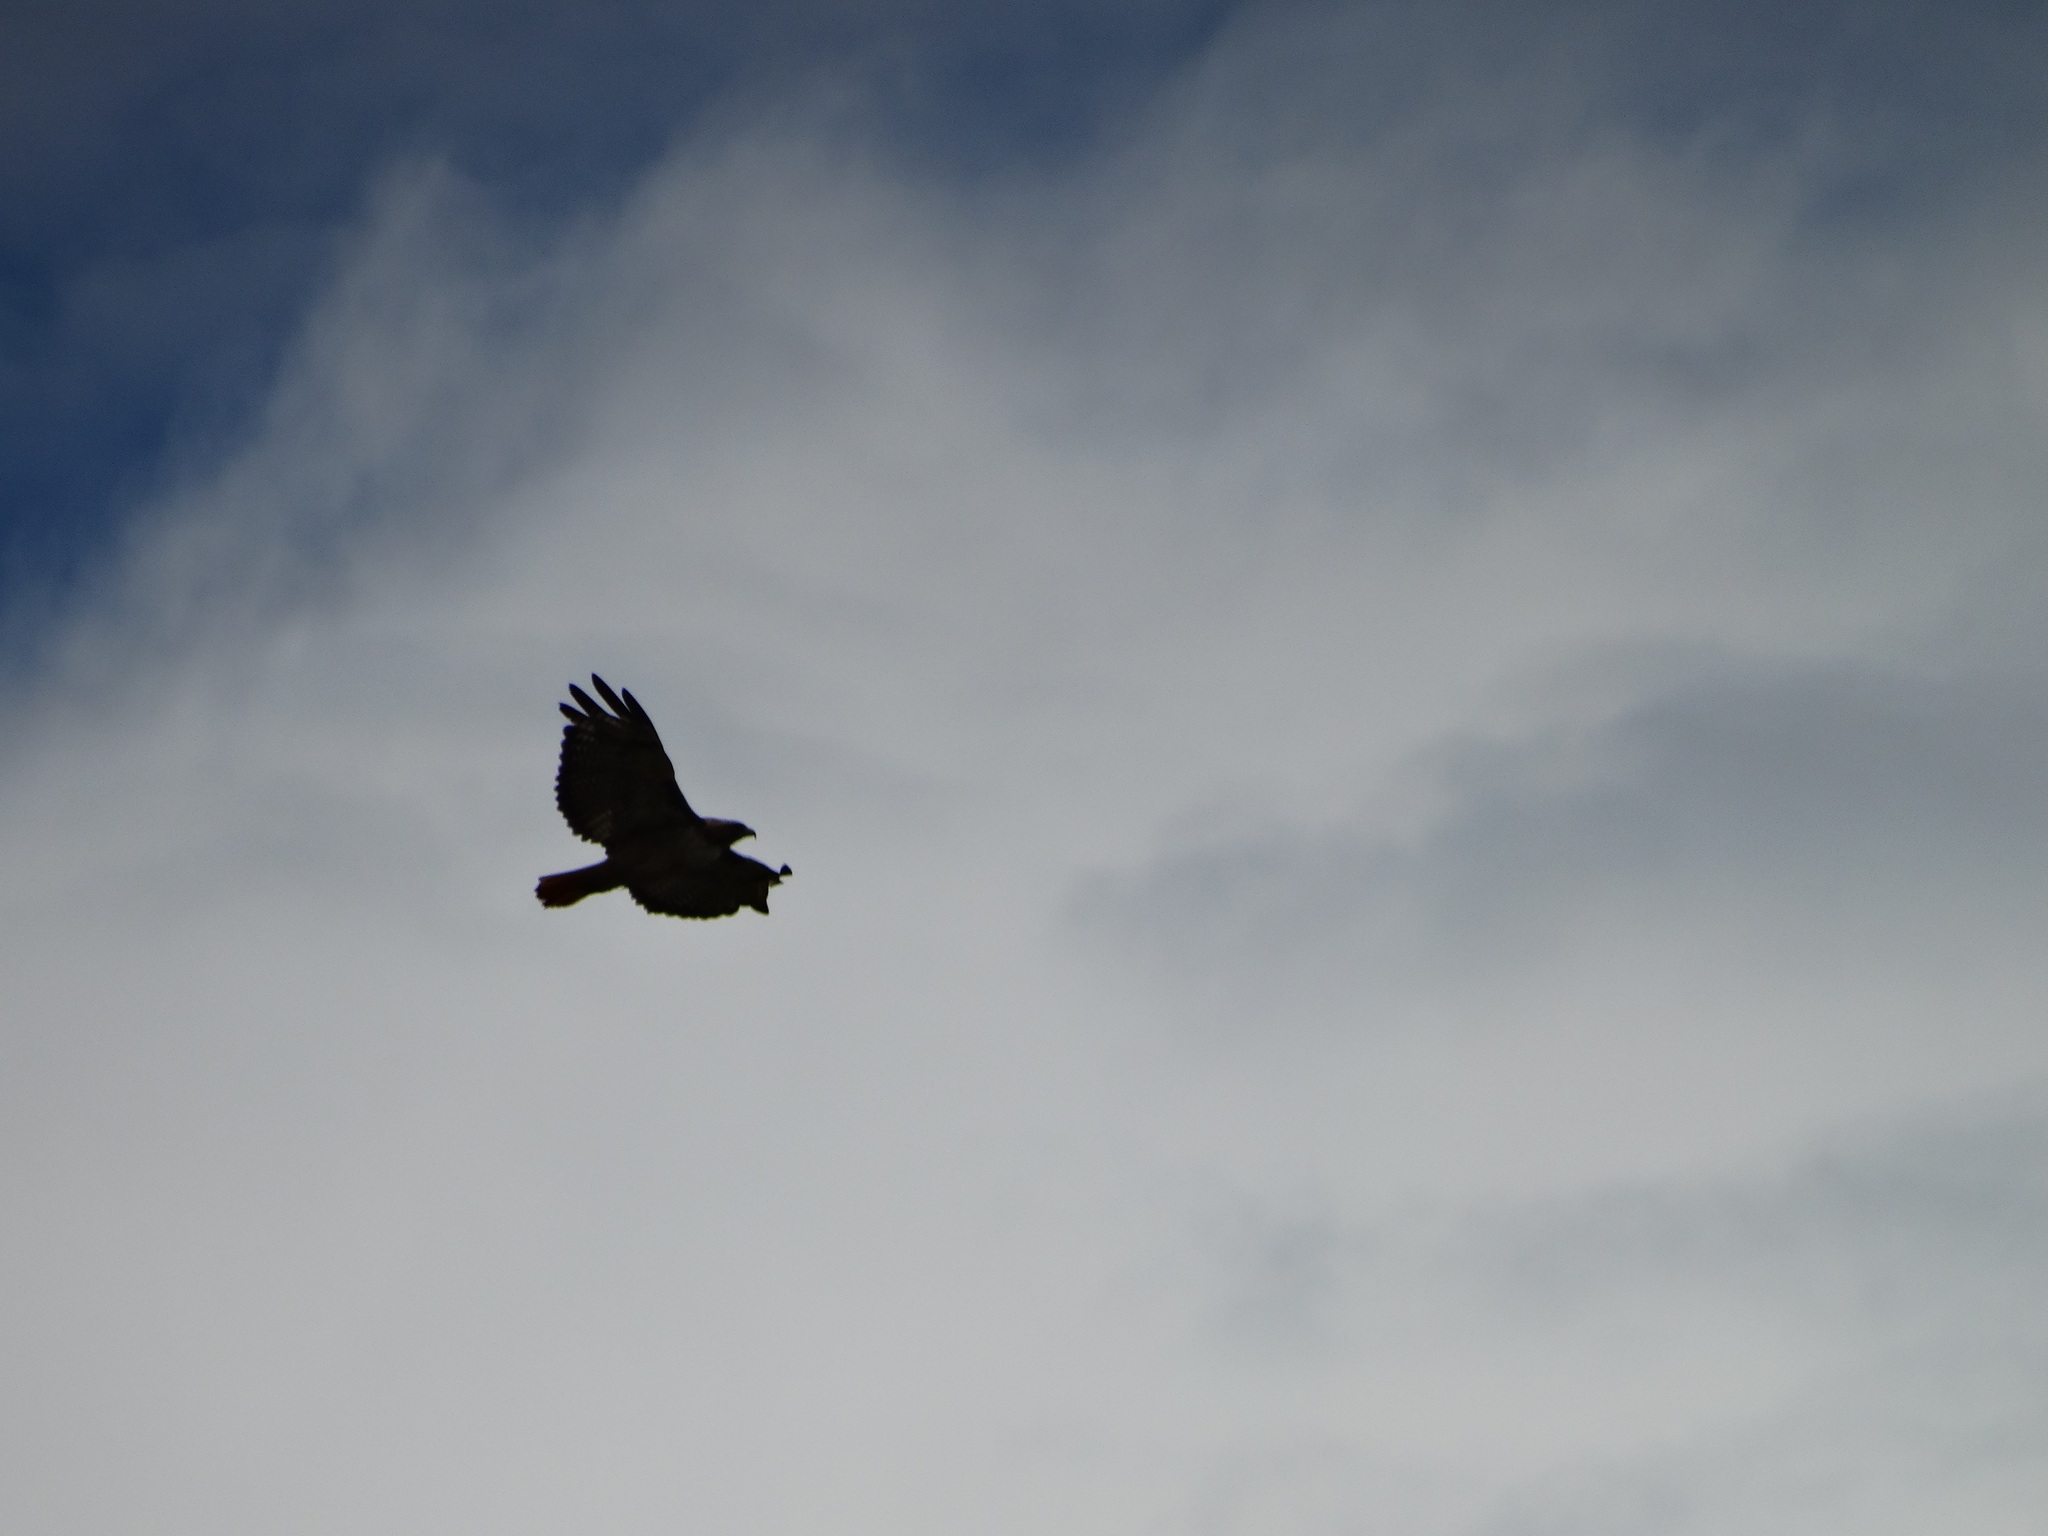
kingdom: Animalia
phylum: Chordata
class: Aves
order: Accipitriformes
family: Accipitridae
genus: Buteo
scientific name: Buteo jamaicensis
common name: Red-tailed hawk
